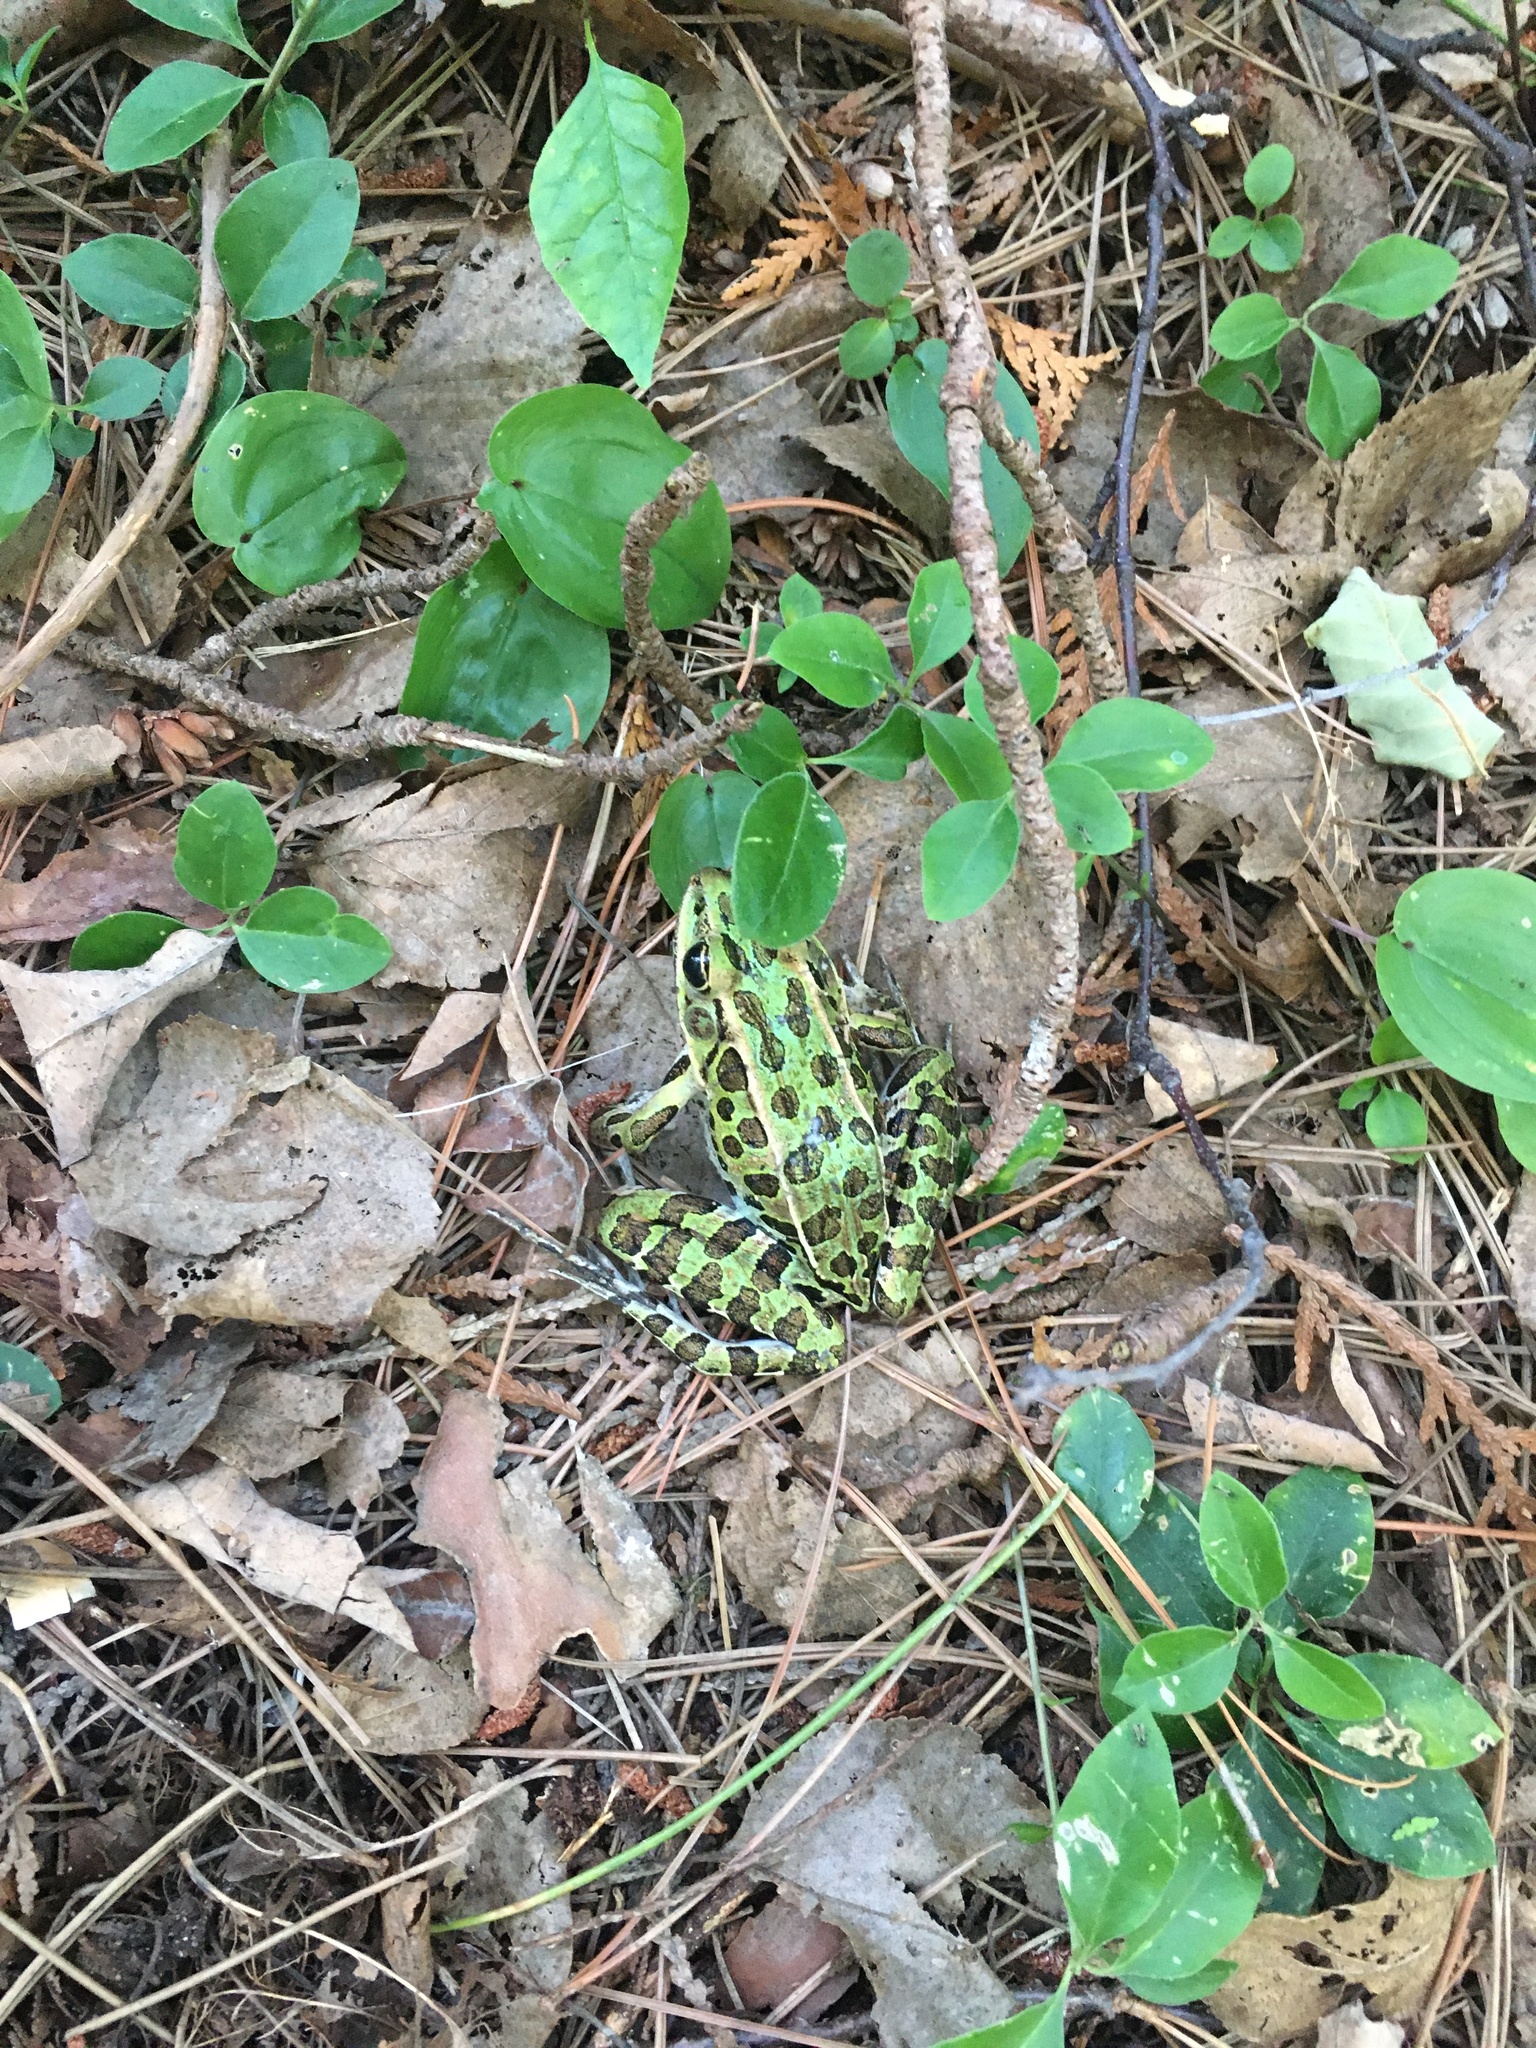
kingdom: Animalia
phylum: Chordata
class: Amphibia
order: Anura
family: Ranidae
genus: Lithobates
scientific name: Lithobates pipiens
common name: Northern leopard frog
